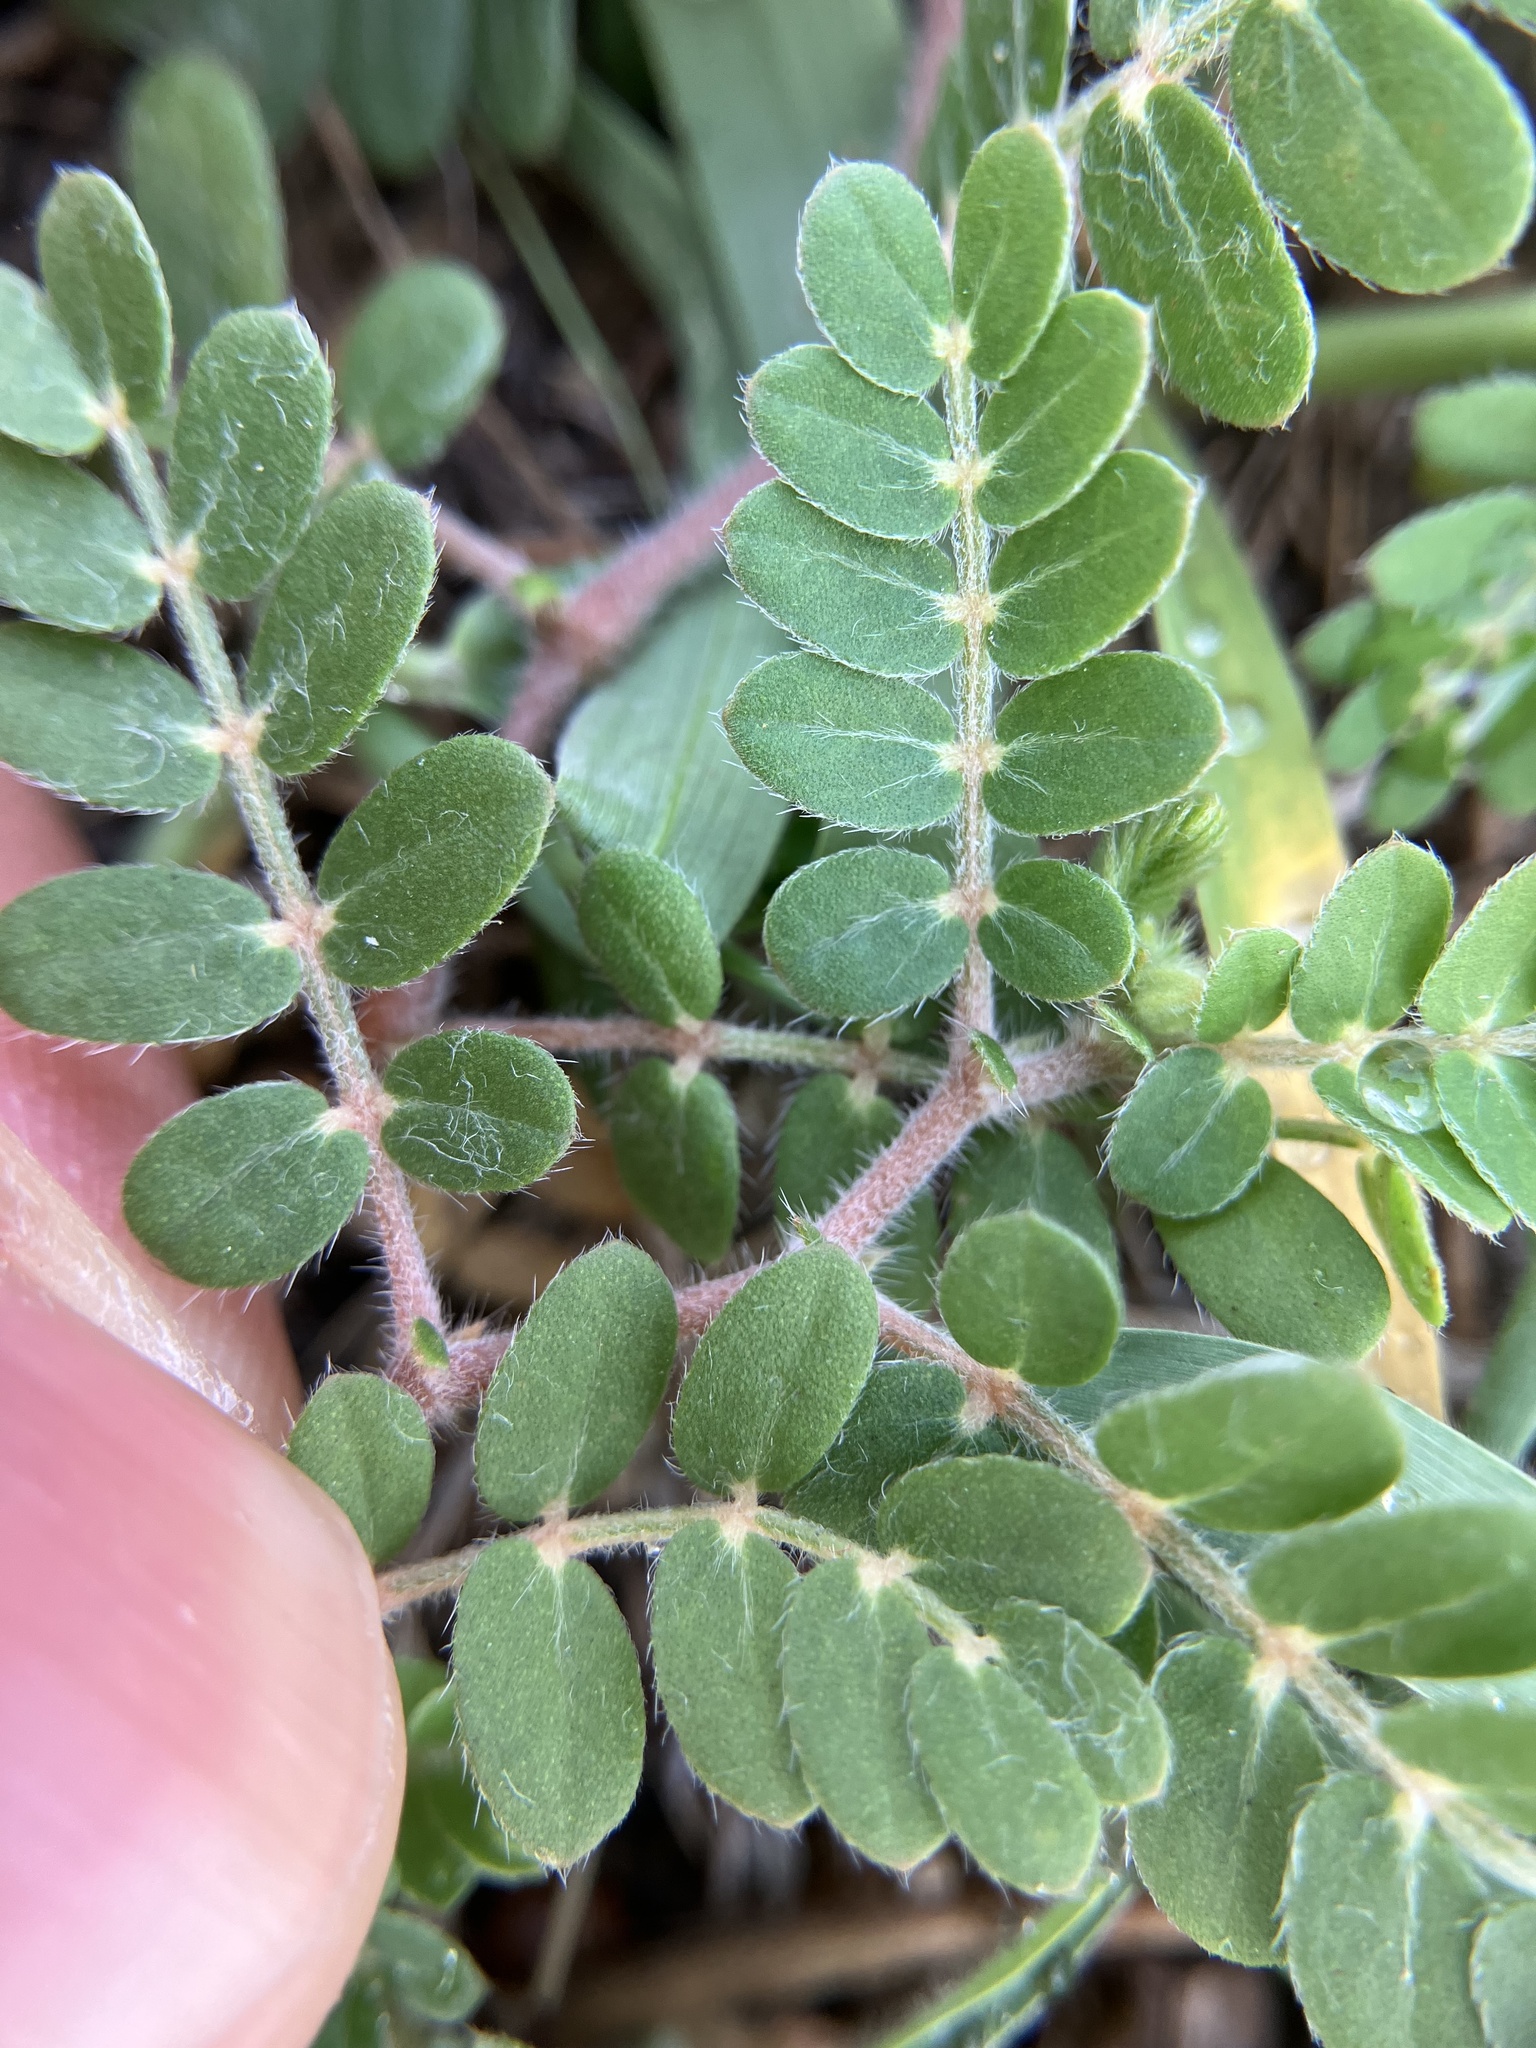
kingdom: Plantae
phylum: Tracheophyta
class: Magnoliopsida
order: Zygophyllales
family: Zygophyllaceae
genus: Tribulus
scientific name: Tribulus terrestris
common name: Puncturevine
